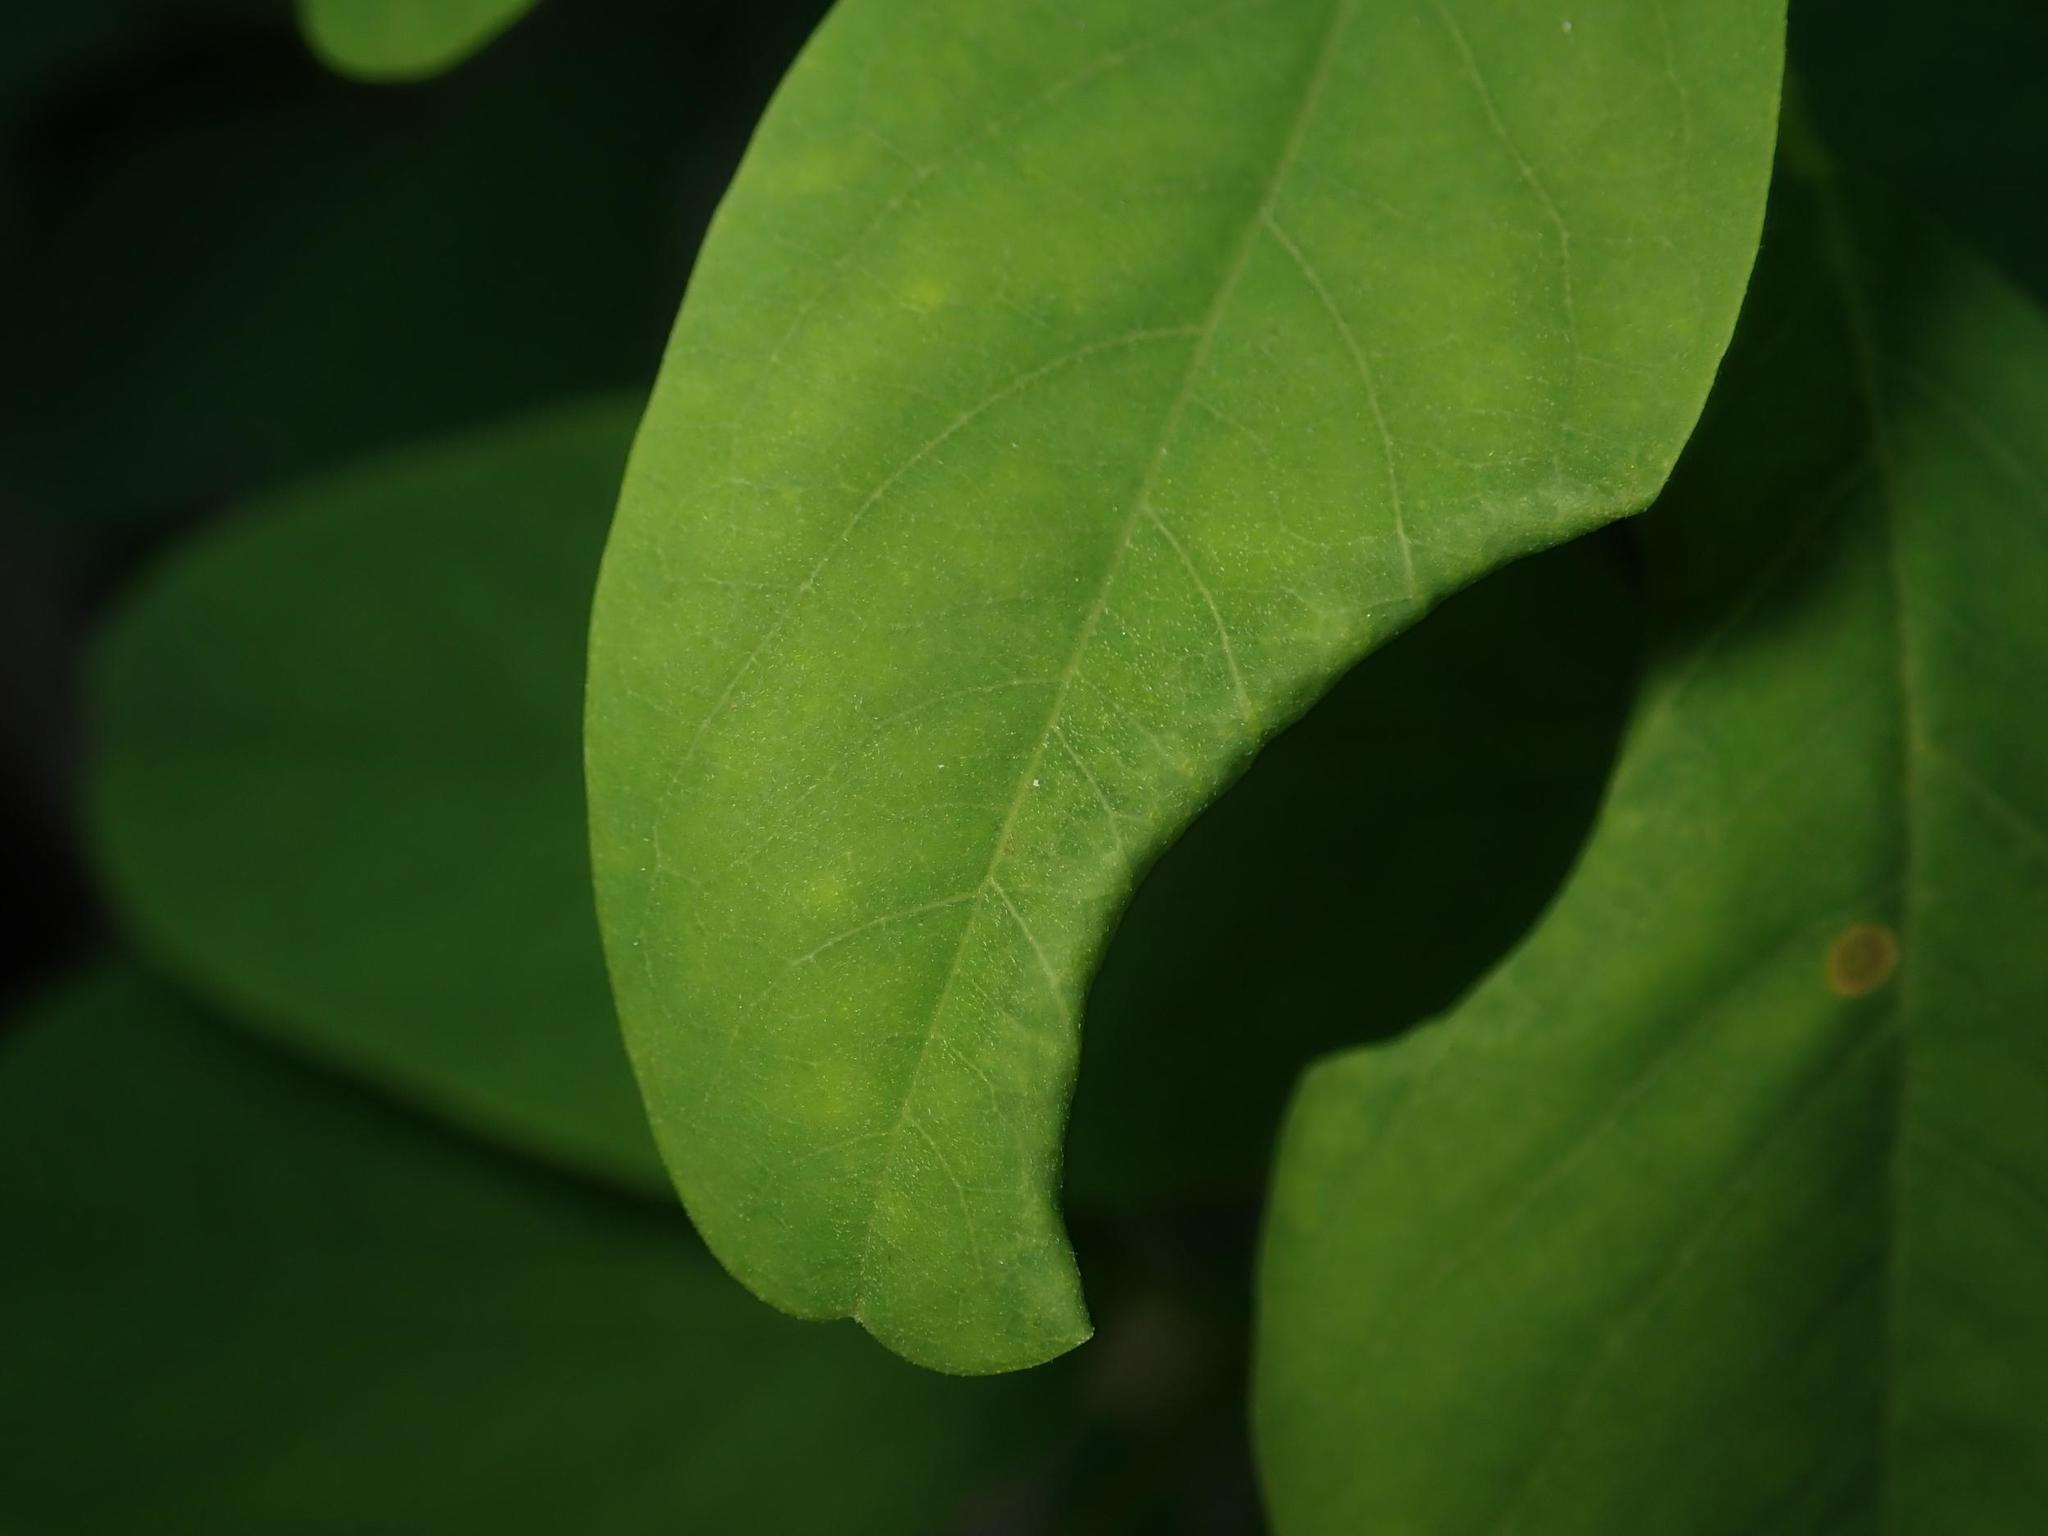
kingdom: Animalia
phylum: Arthropoda
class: Insecta
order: Diptera
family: Cecidomyiidae
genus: Obolodiplosis
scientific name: Obolodiplosis robiniae
